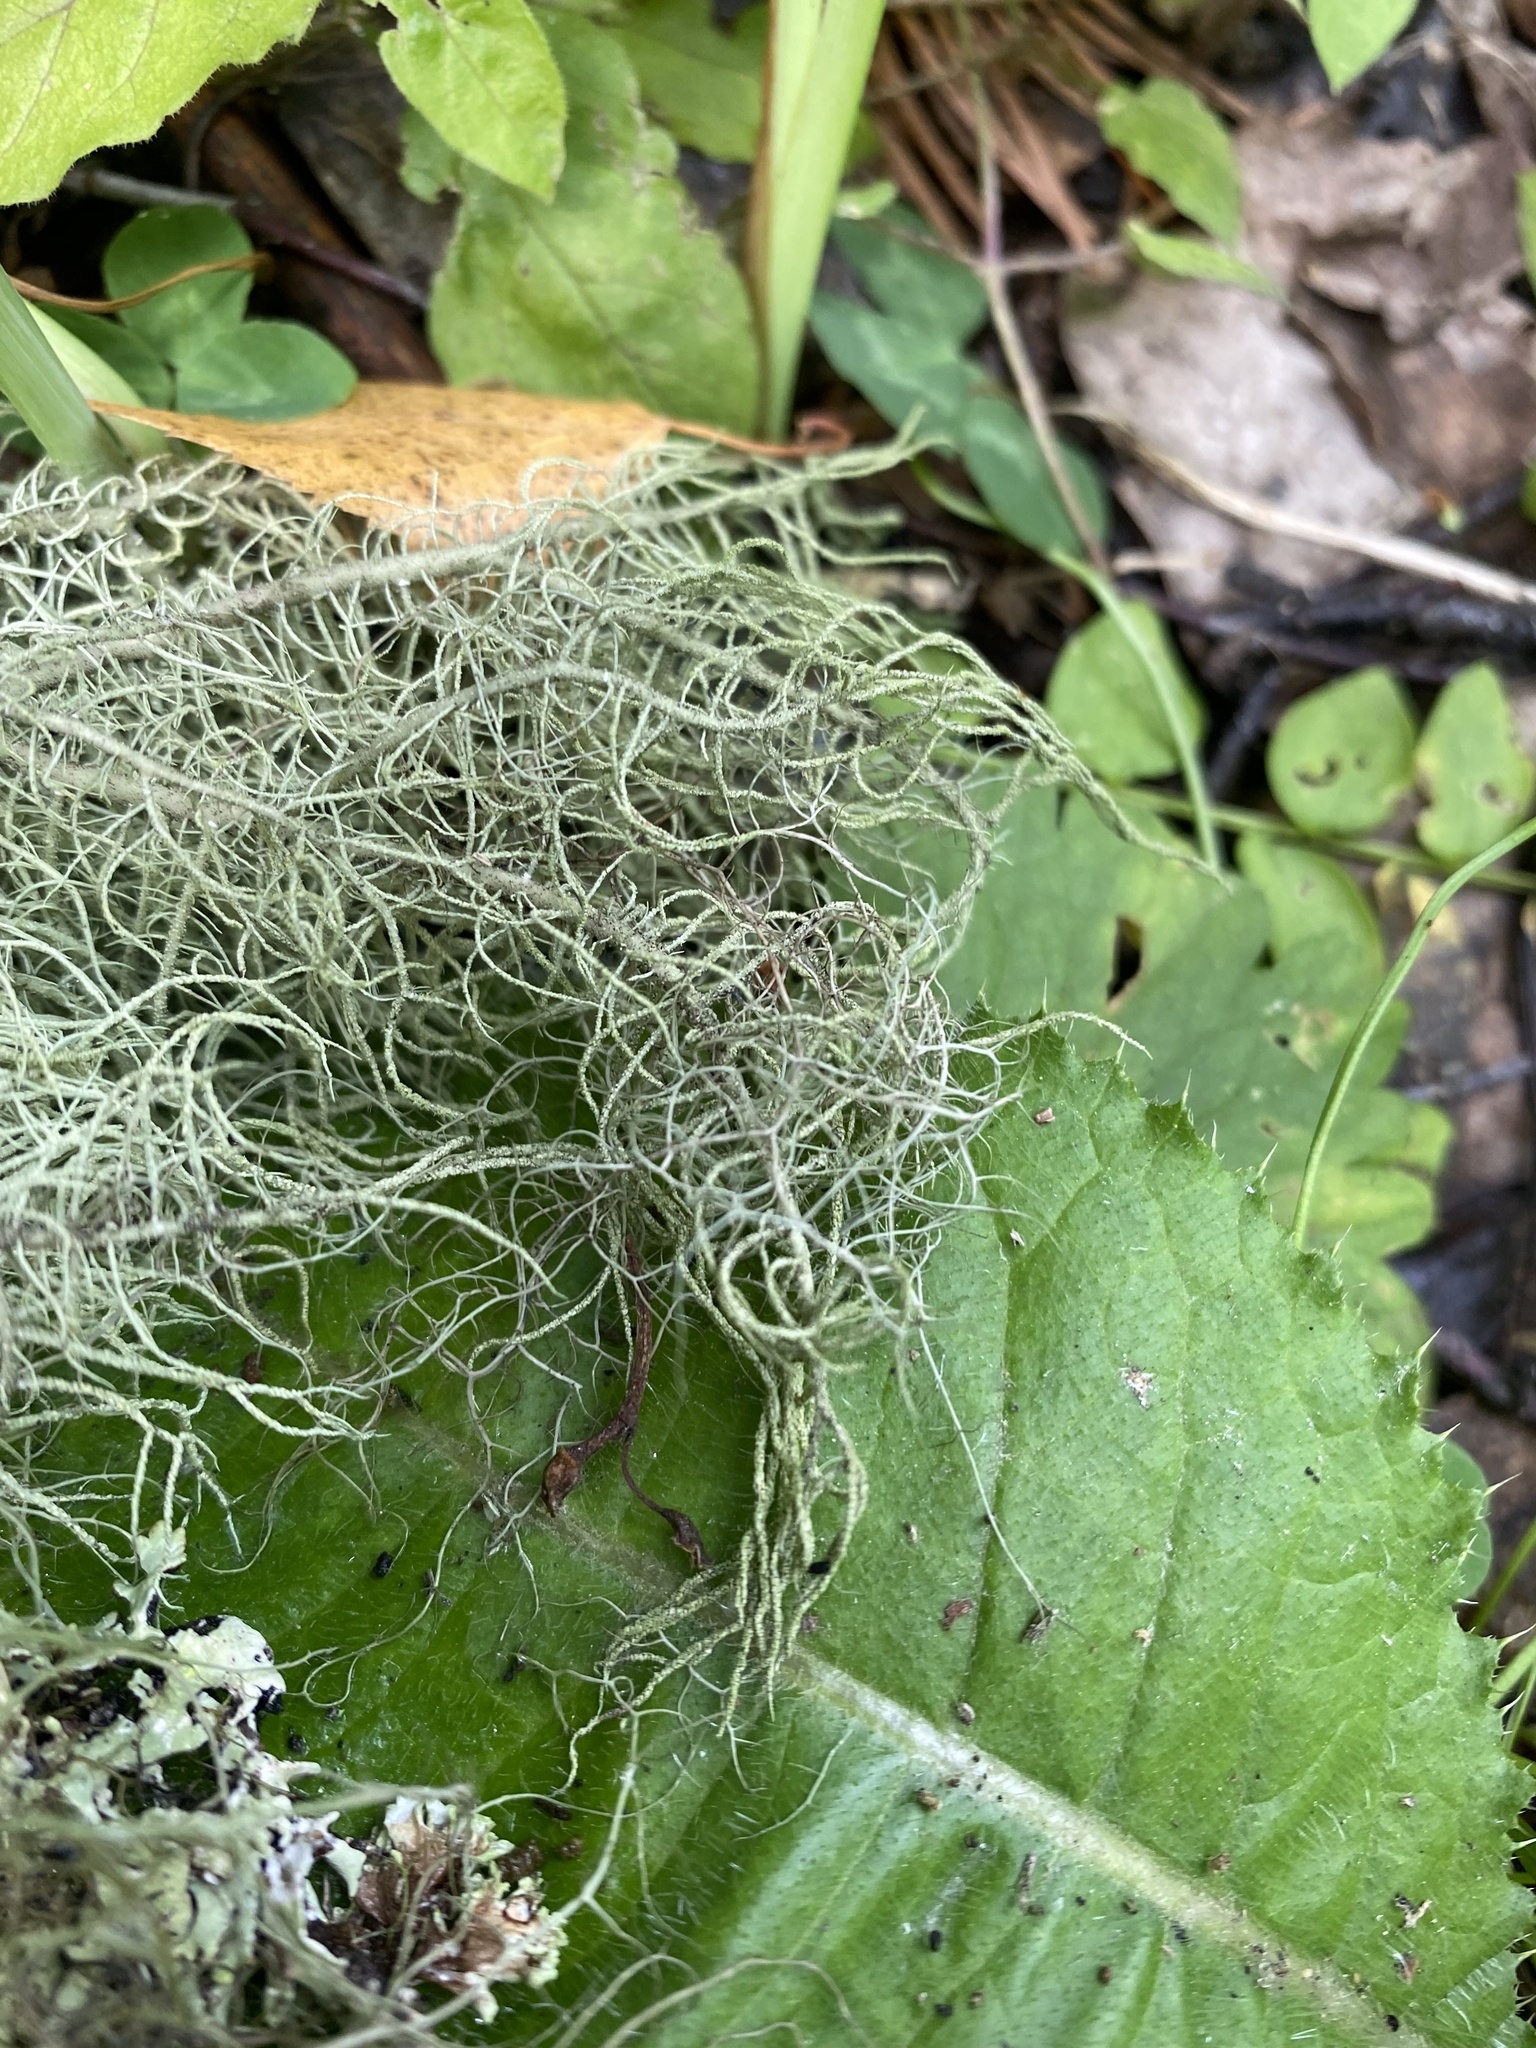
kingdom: Fungi
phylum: Ascomycota
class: Lecanoromycetes
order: Lecanorales
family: Parmeliaceae
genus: Usnea
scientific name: Usnea
